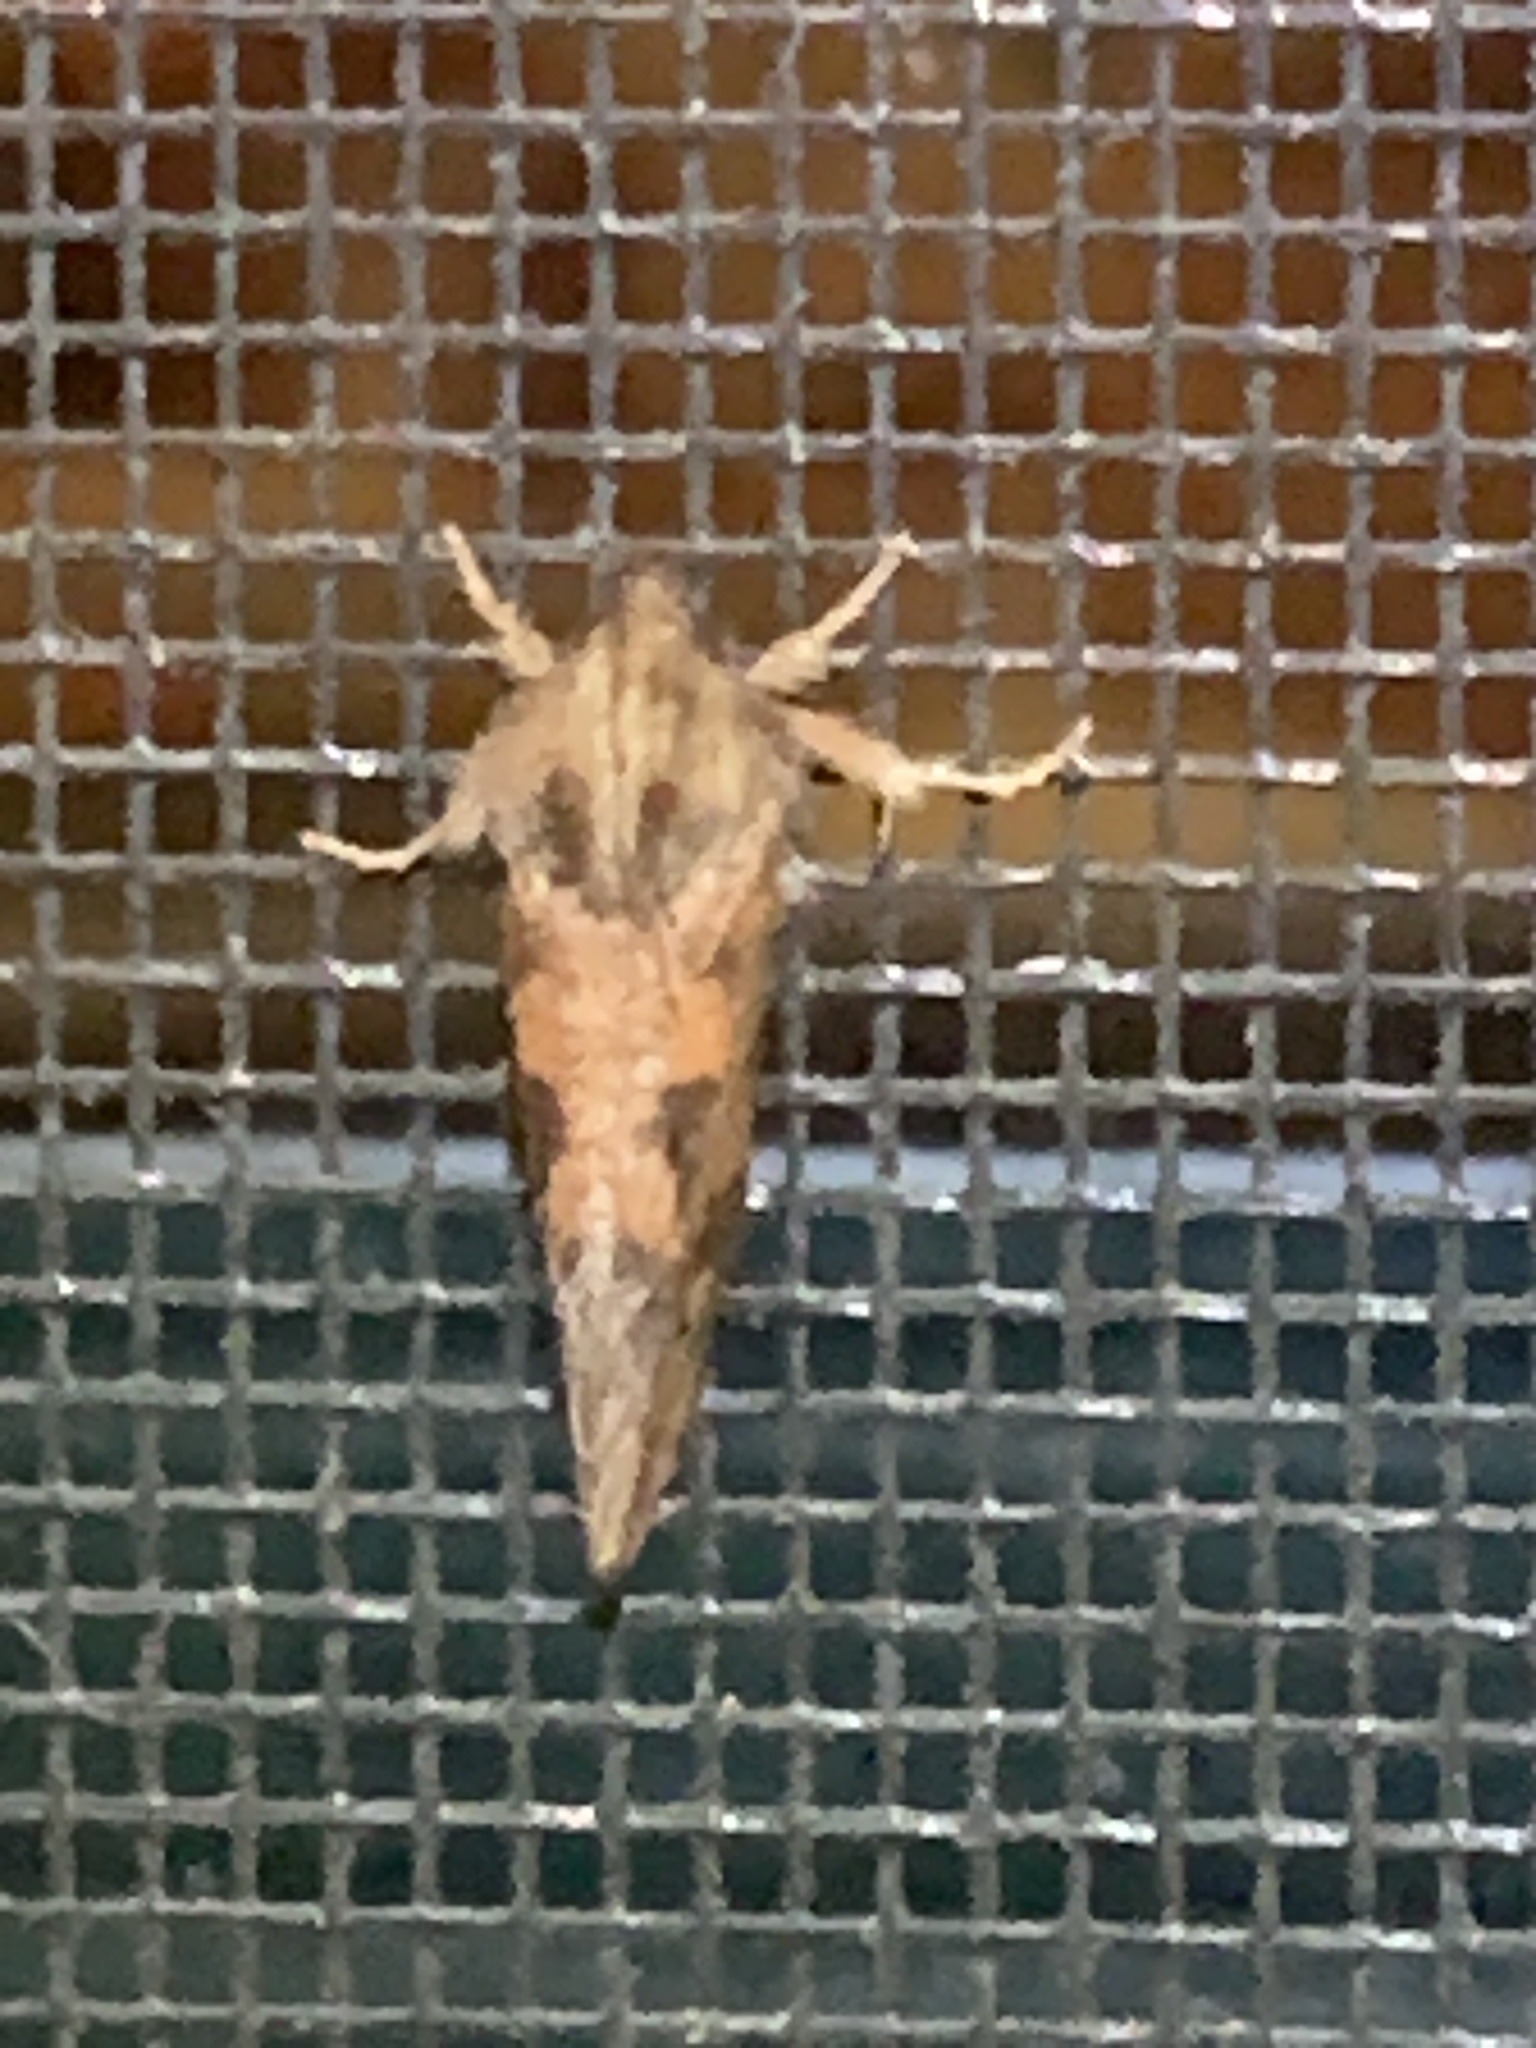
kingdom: Animalia
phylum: Arthropoda
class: Insecta
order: Lepidoptera
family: Tineidae
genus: Acrolophus
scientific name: Acrolophus plumifrontella
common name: Eastern grass tubeworm moth
